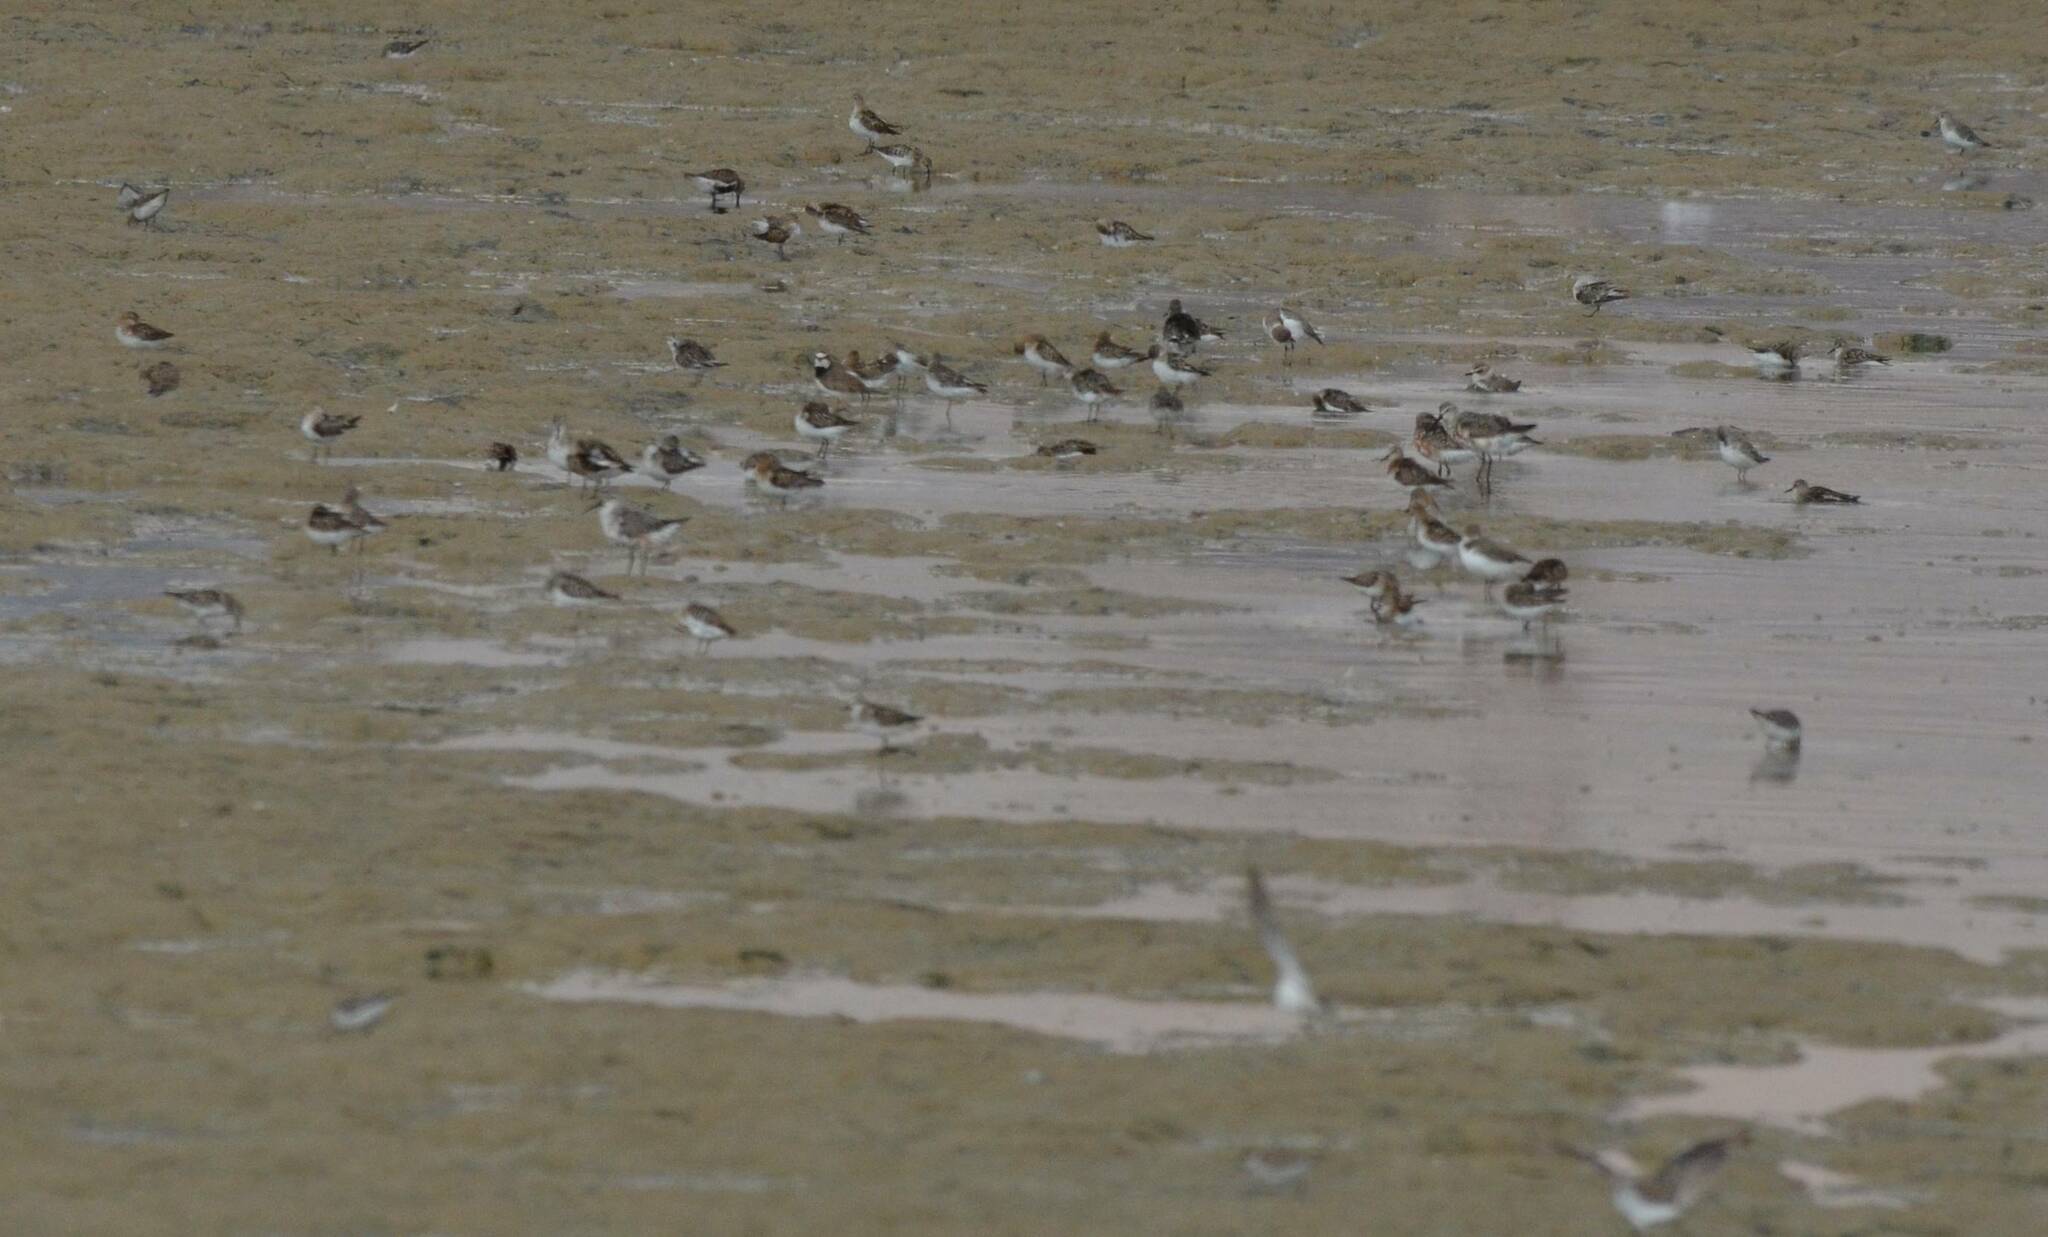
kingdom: Animalia
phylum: Chordata
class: Aves
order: Charadriiformes
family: Charadriidae
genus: Charadrius
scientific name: Charadrius dubius
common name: Little ringed plover
